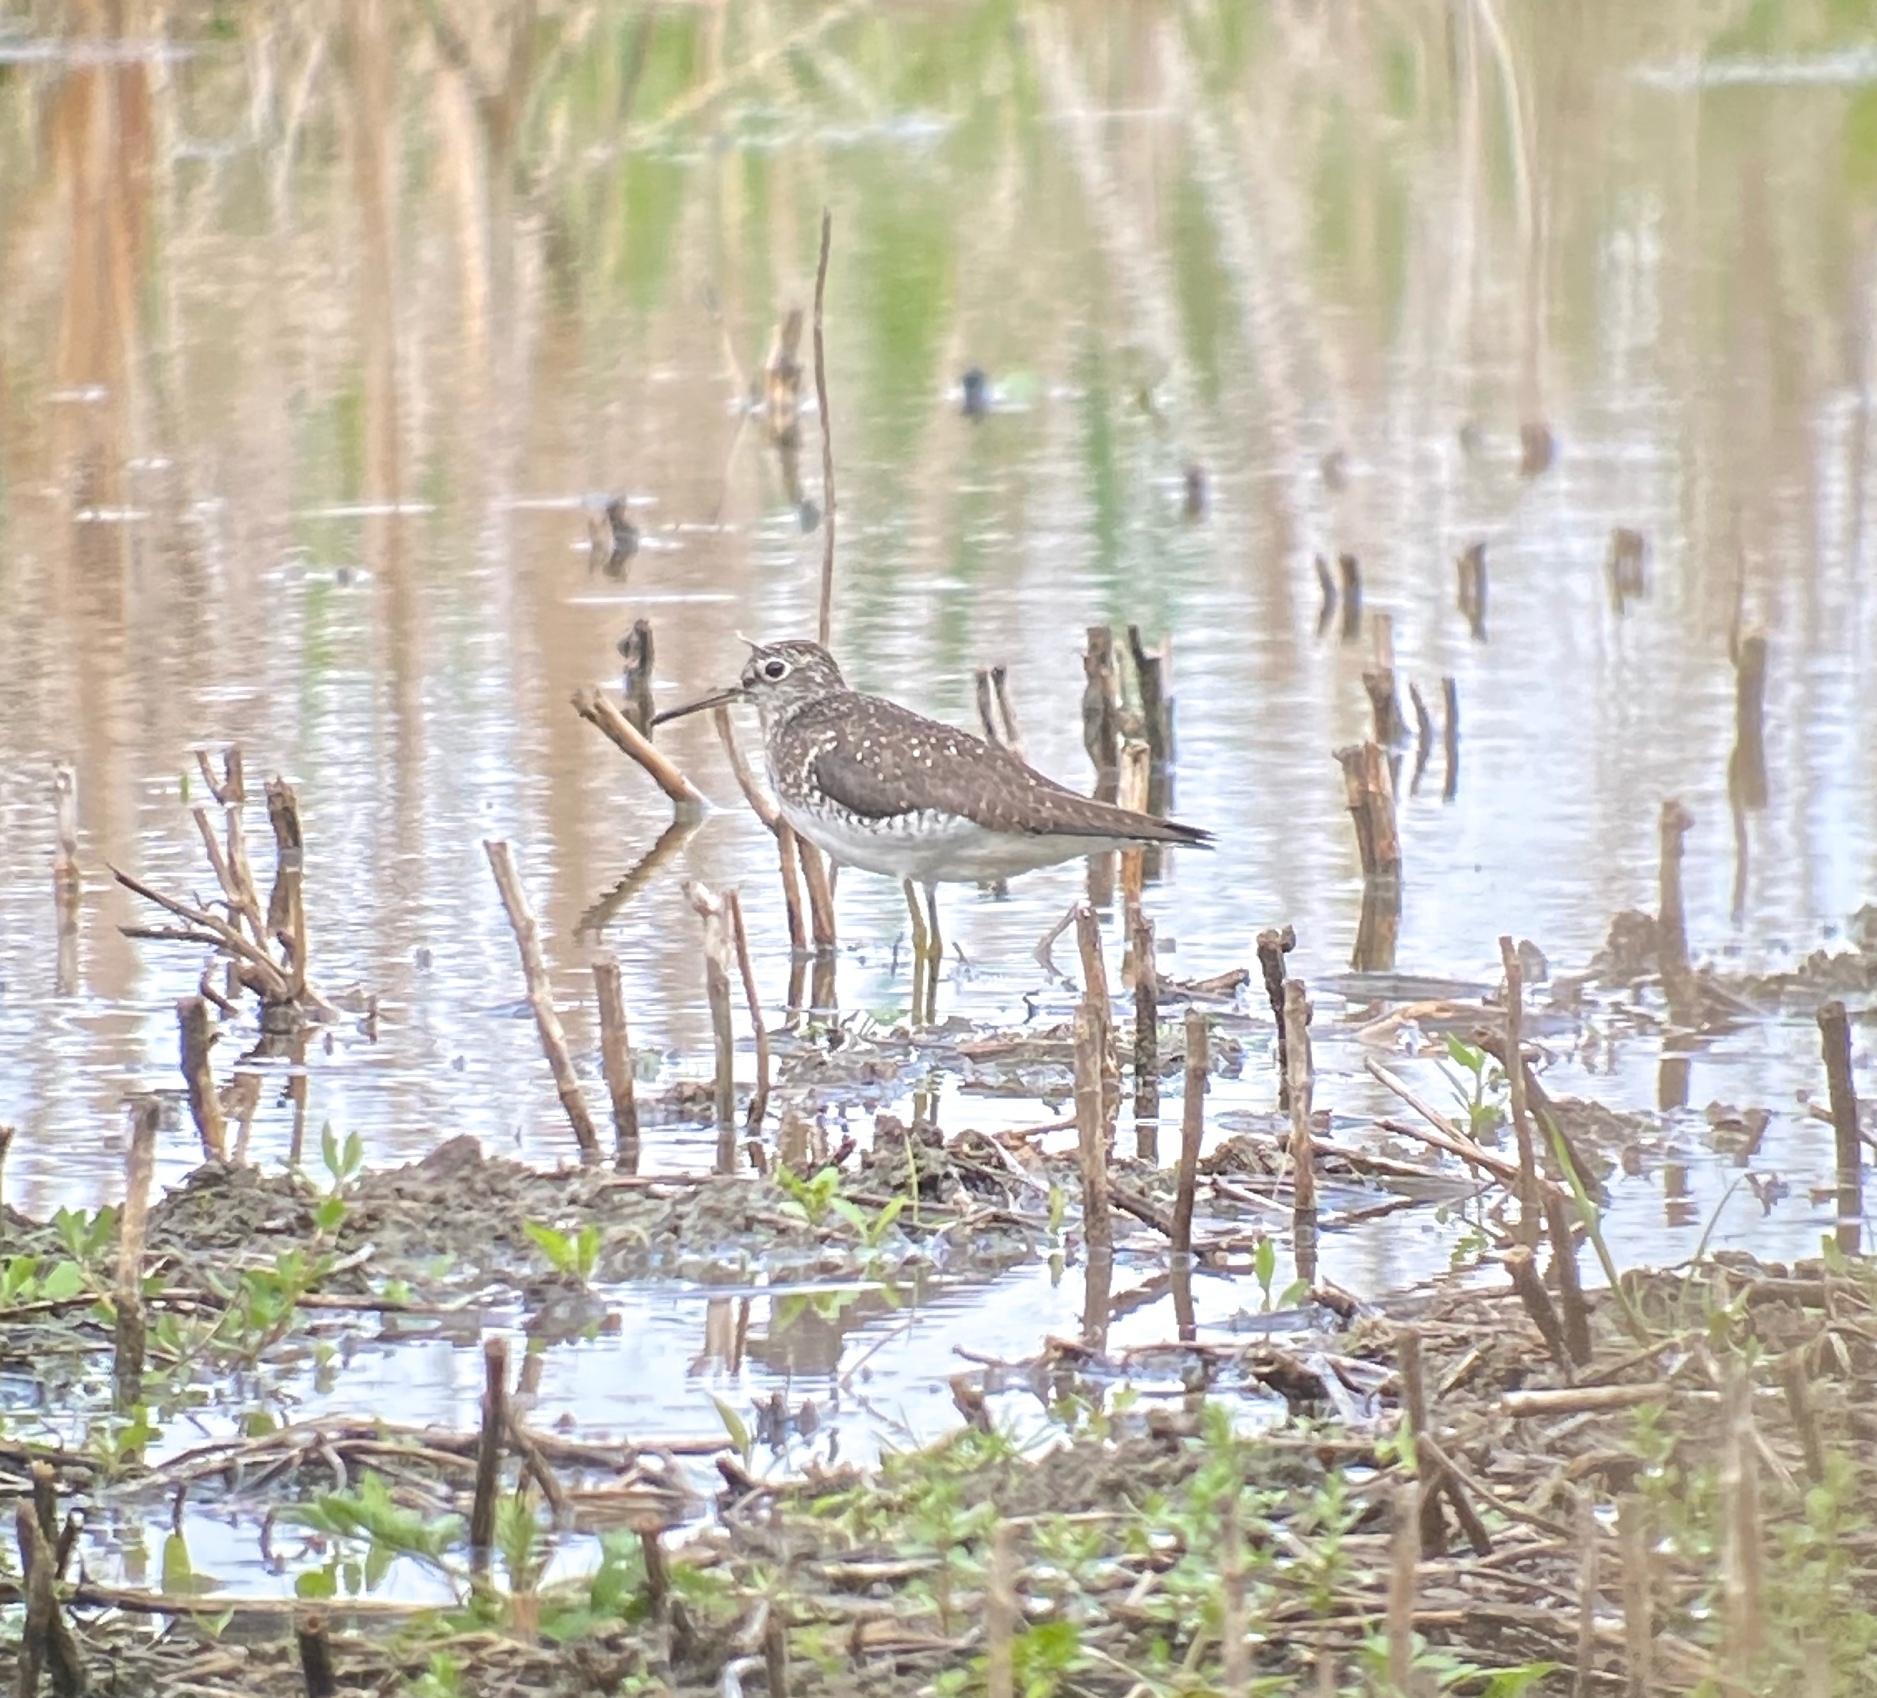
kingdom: Animalia
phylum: Chordata
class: Aves
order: Charadriiformes
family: Scolopacidae
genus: Tringa
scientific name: Tringa solitaria
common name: Solitary sandpiper
